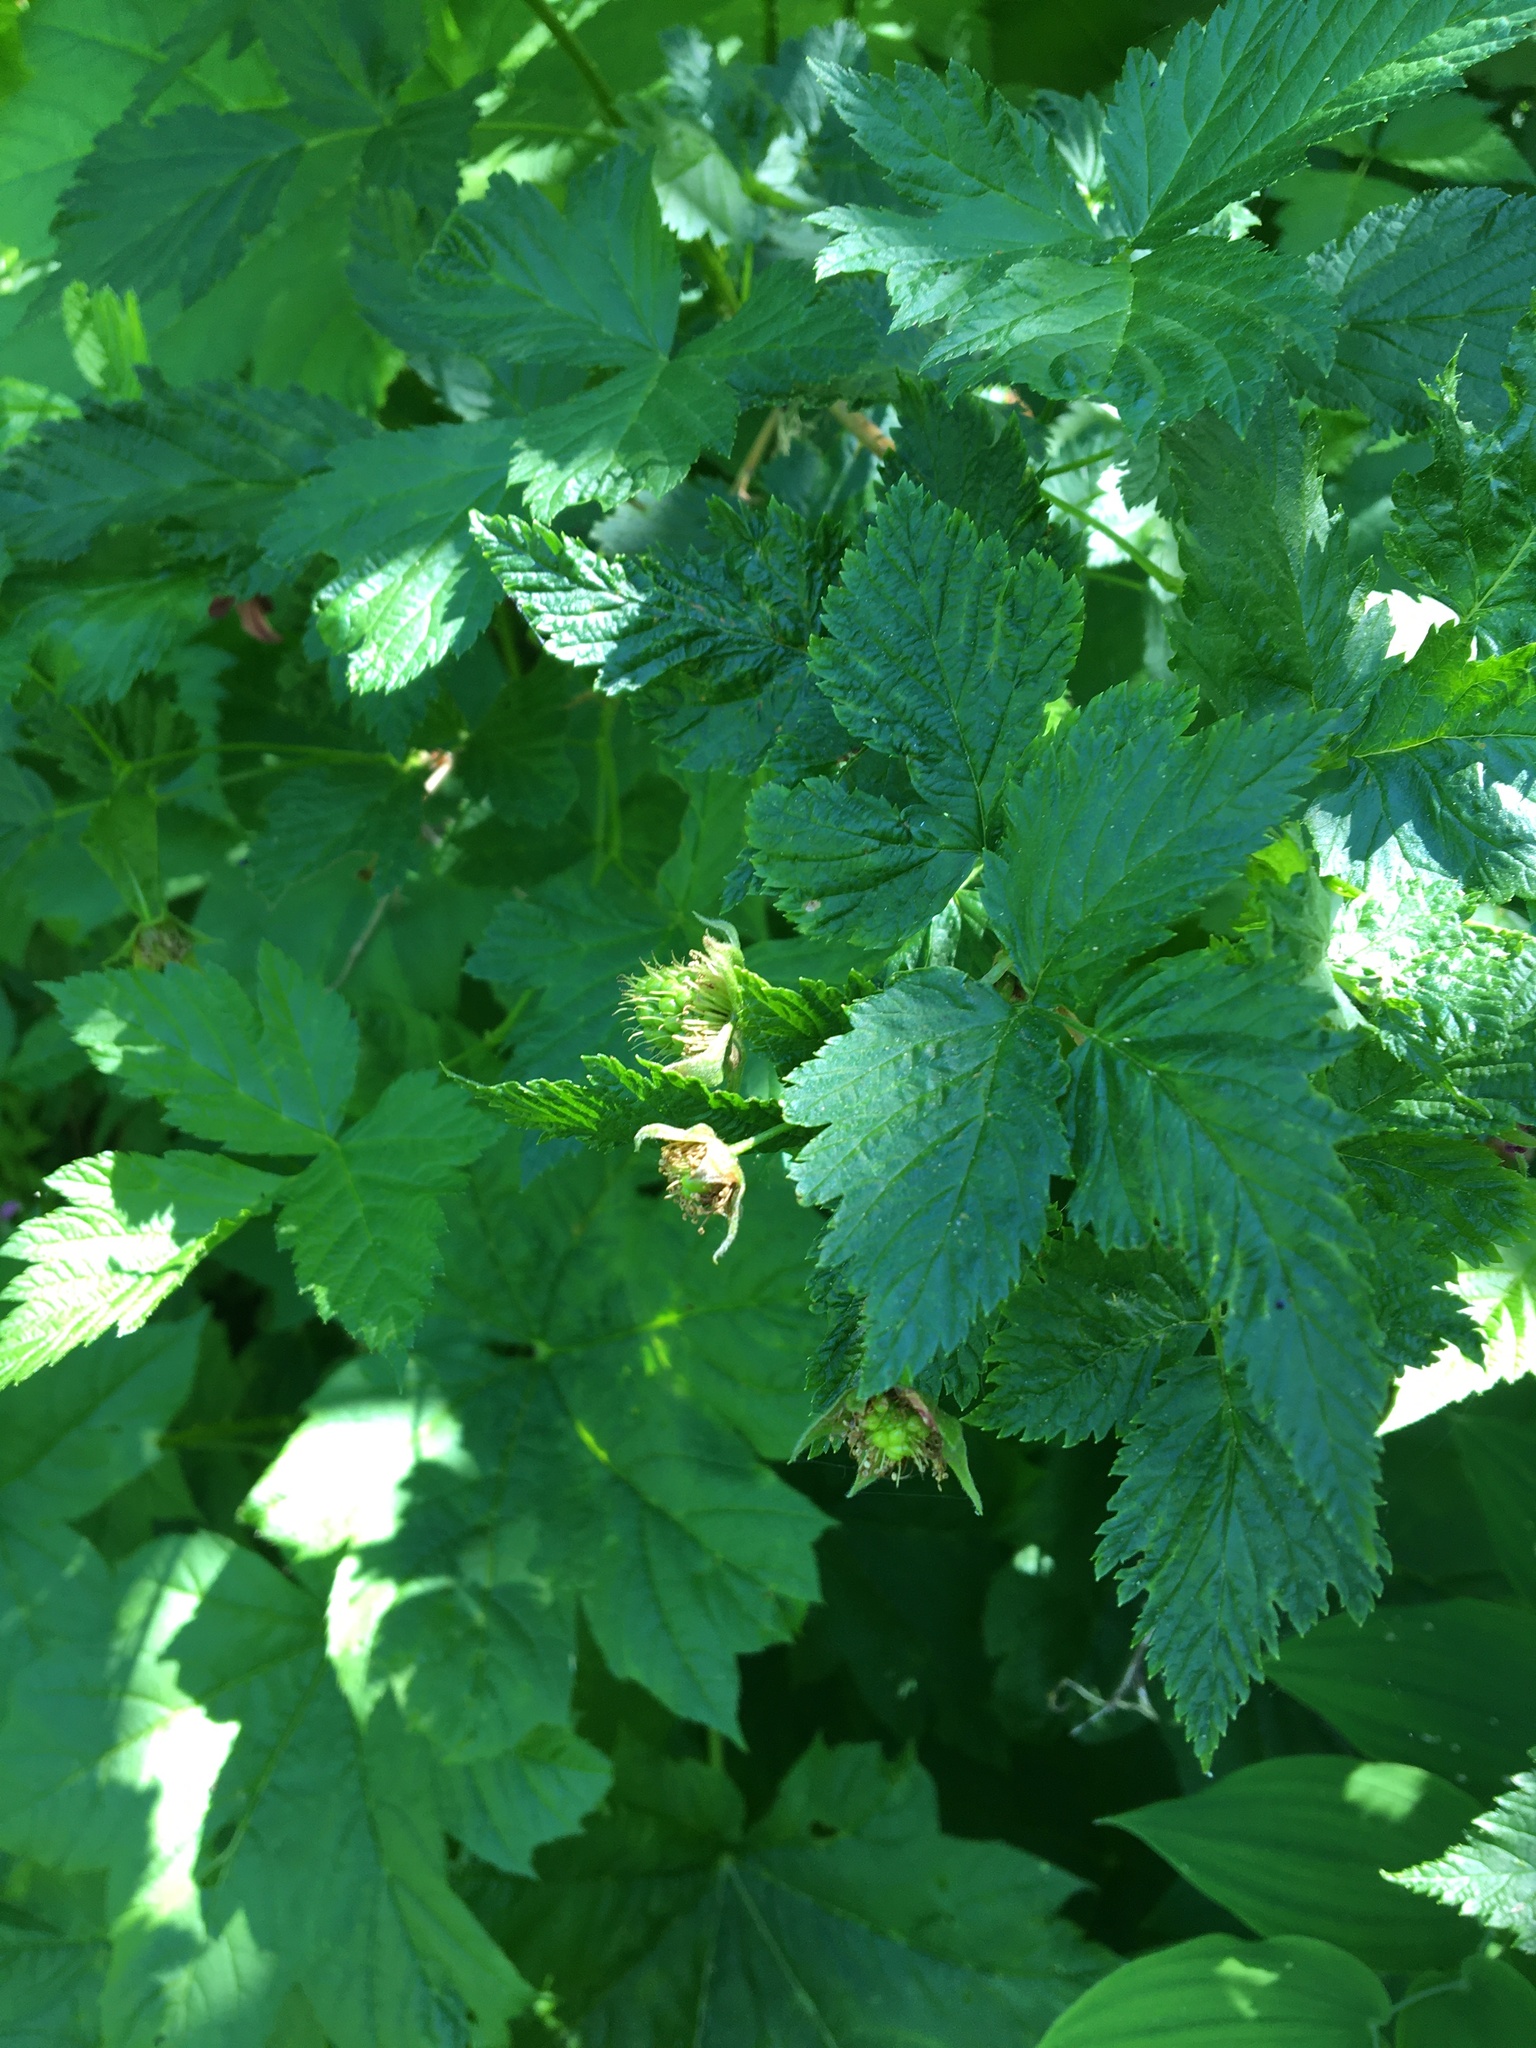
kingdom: Plantae
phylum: Tracheophyta
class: Magnoliopsida
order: Rosales
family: Rosaceae
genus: Rubus
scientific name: Rubus spectabilis
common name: Salmonberry
